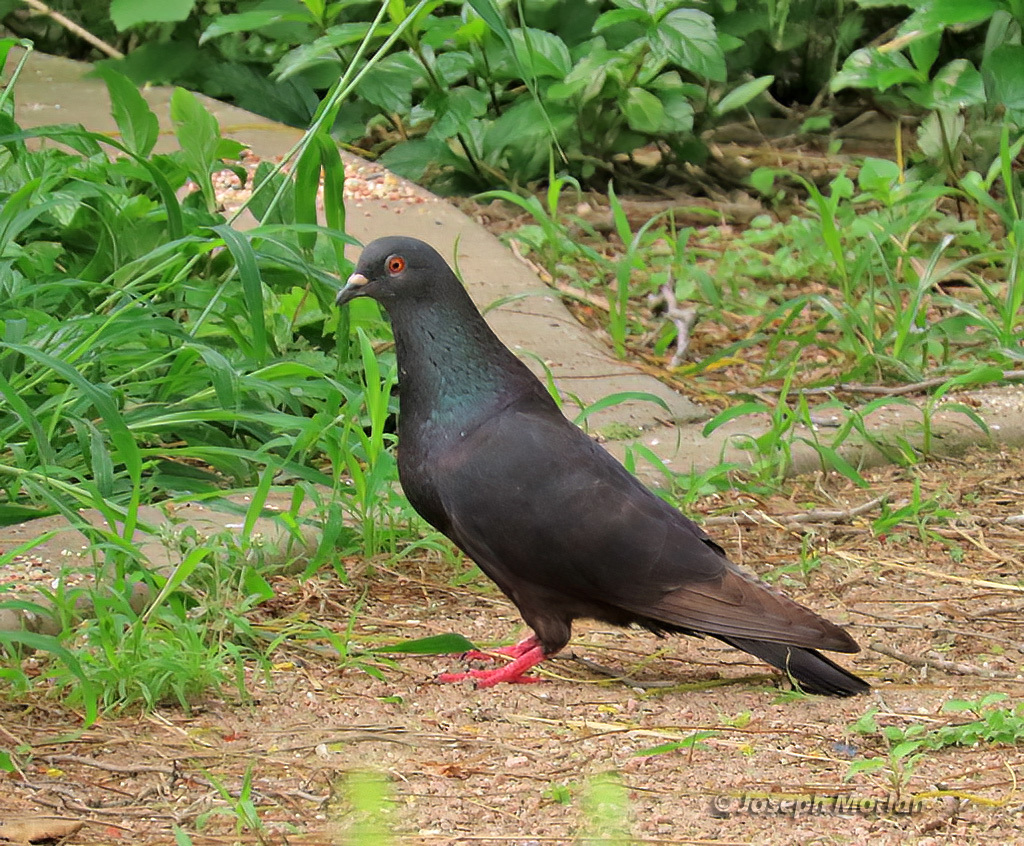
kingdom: Animalia
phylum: Chordata
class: Aves
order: Columbiformes
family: Columbidae
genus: Columba
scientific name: Columba livia
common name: Rock pigeon
